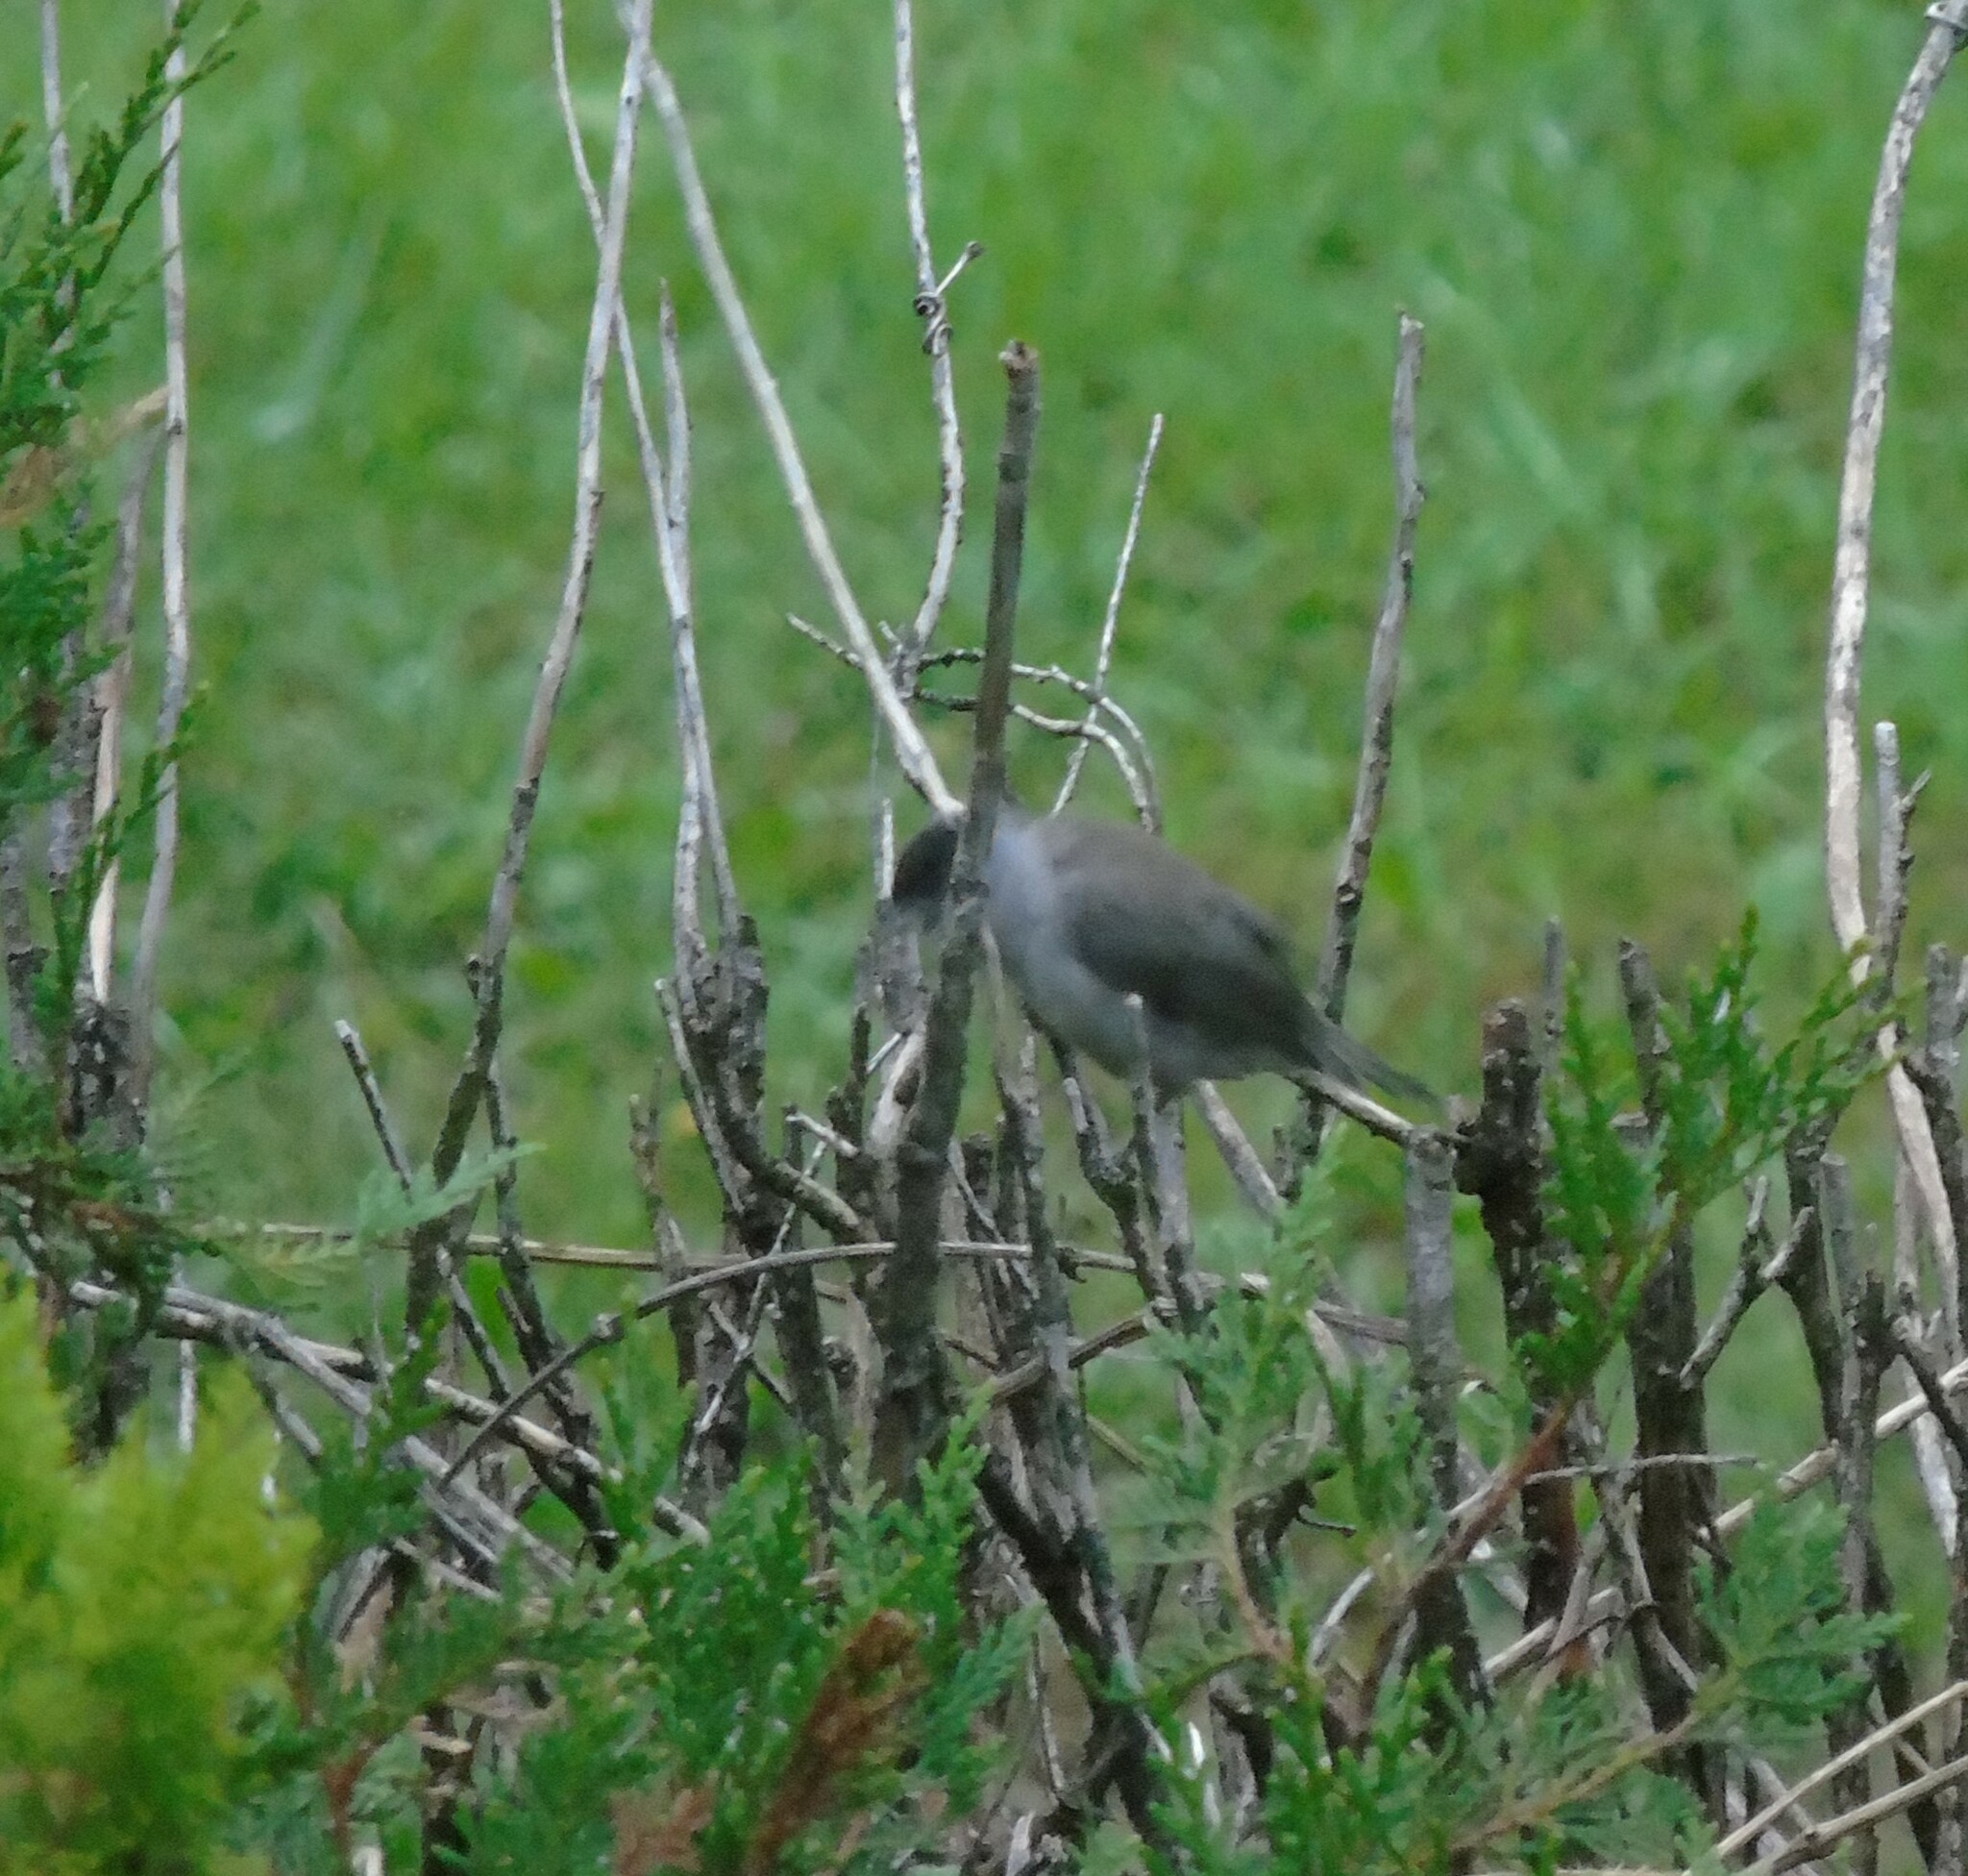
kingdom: Animalia
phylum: Chordata
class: Aves
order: Passeriformes
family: Sylviidae
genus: Sylvia
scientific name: Sylvia atricapilla
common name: Eurasian blackcap
